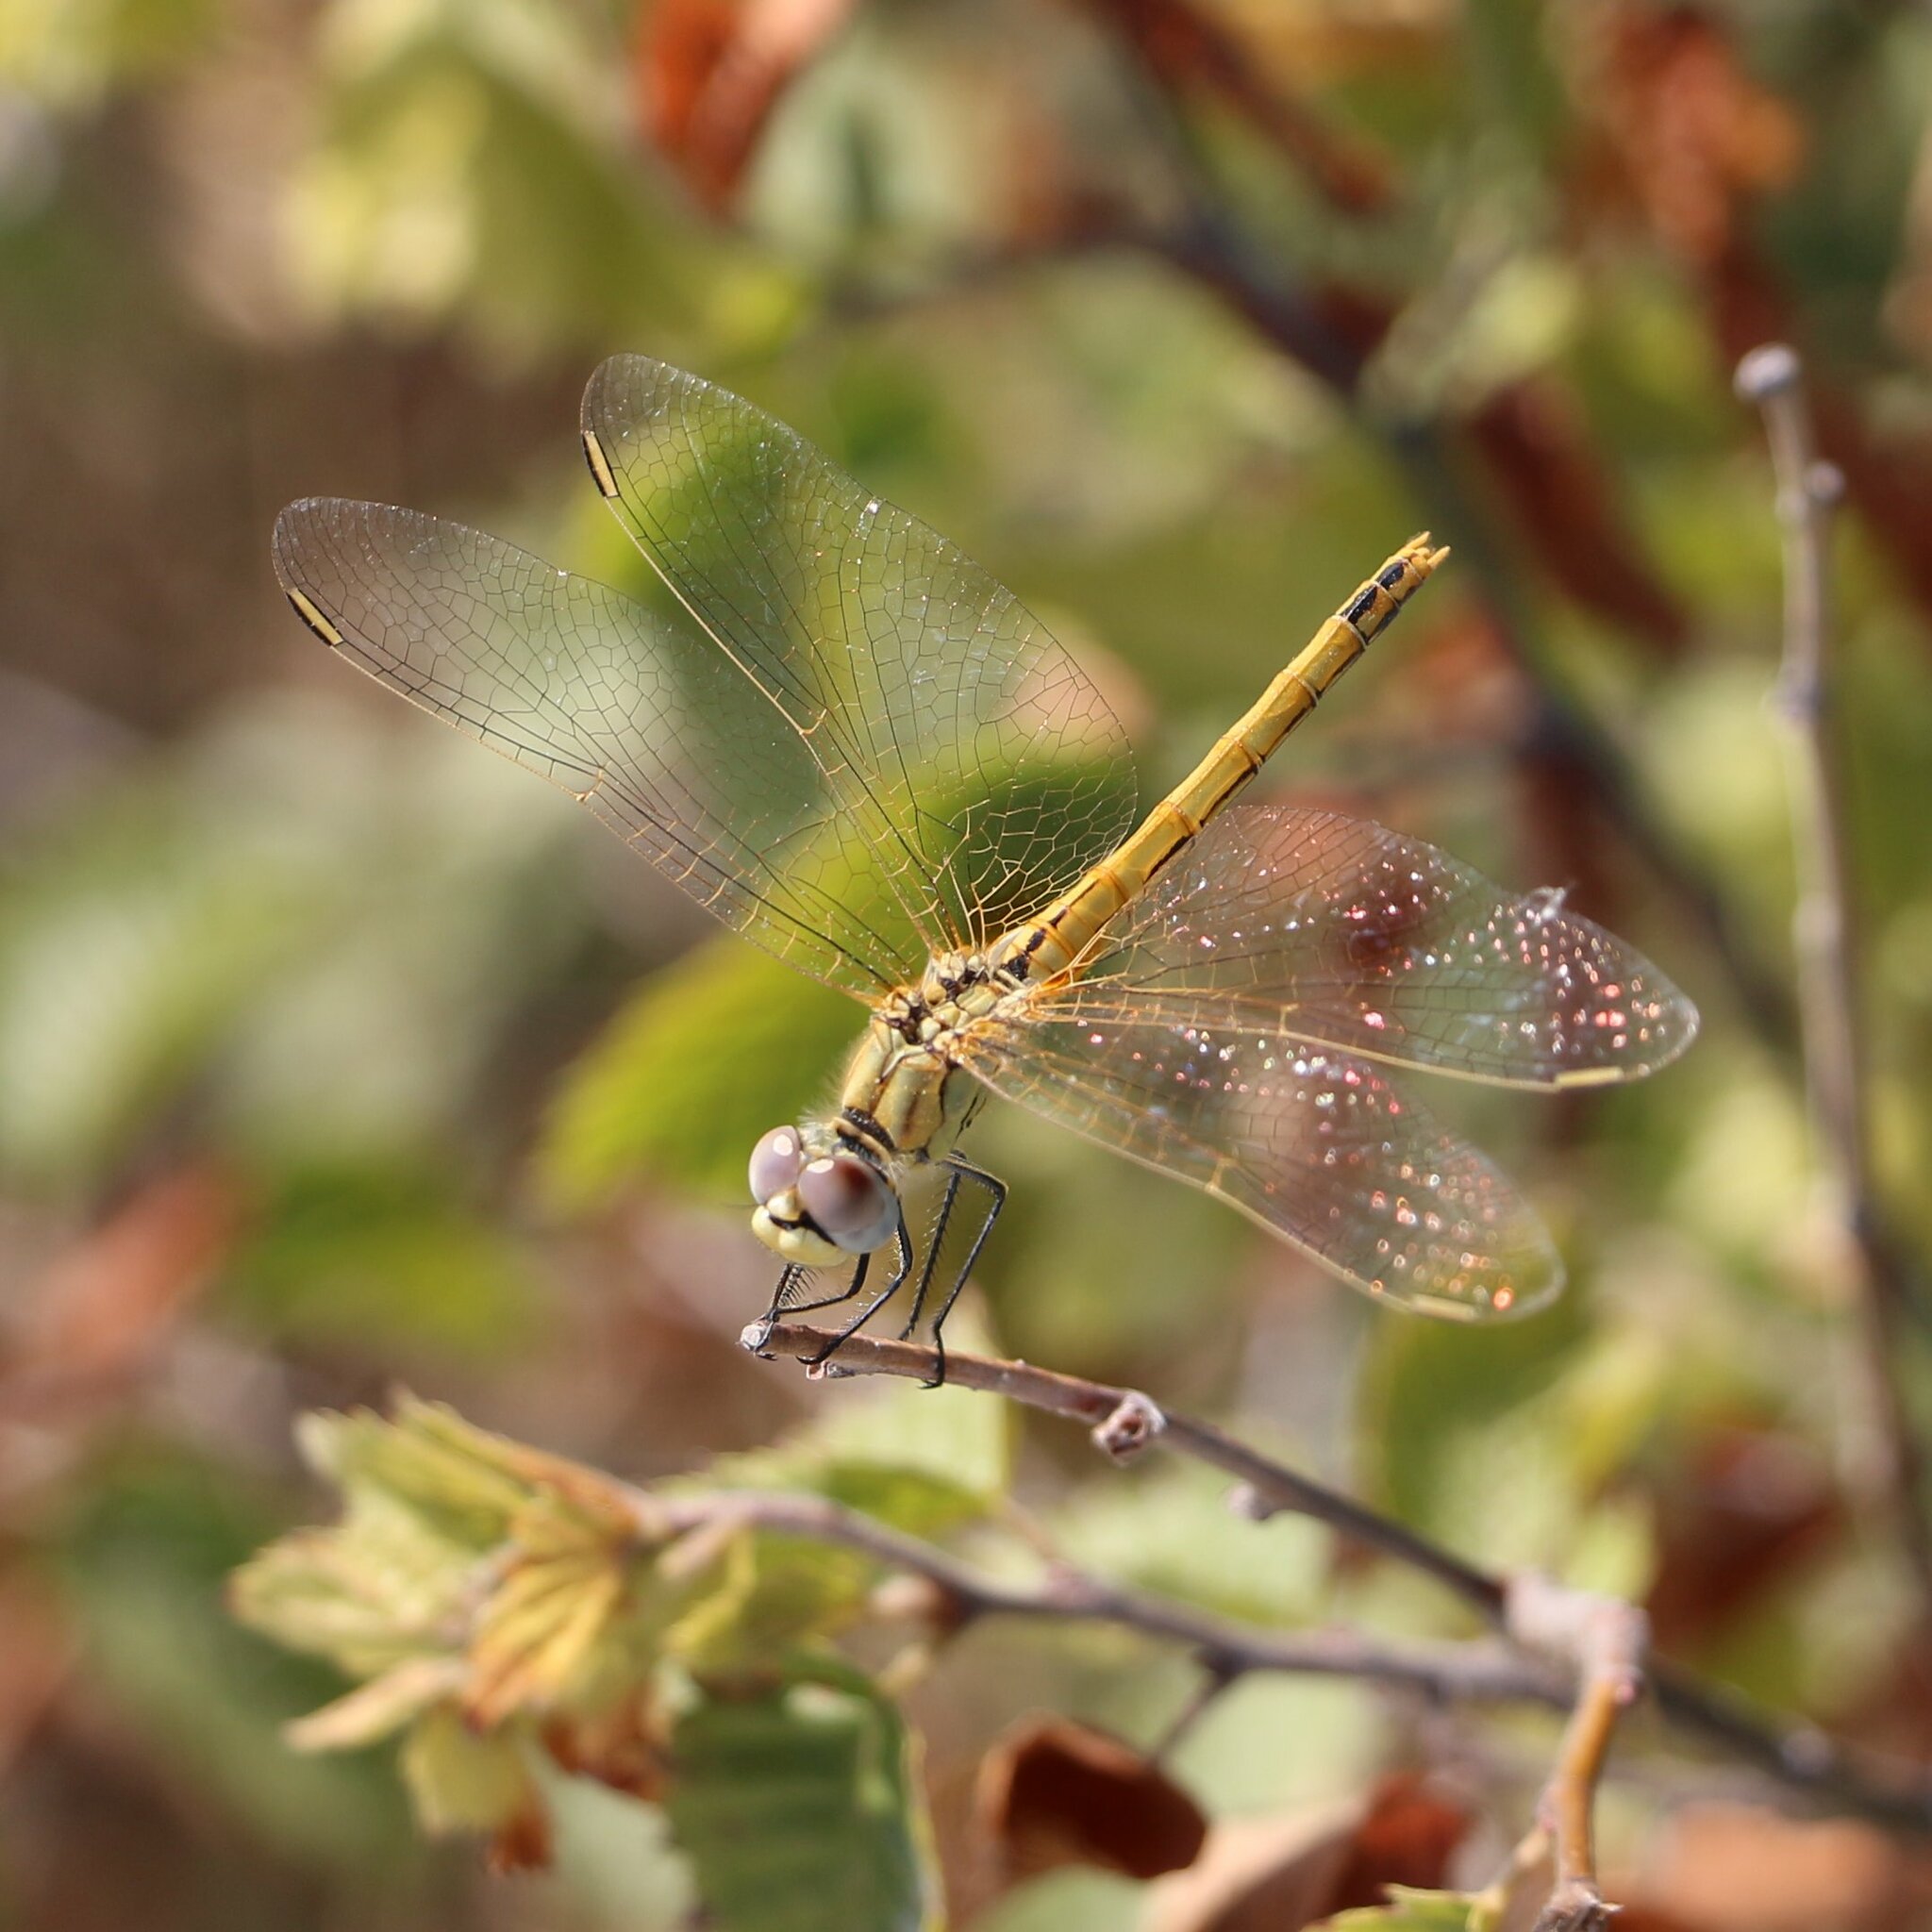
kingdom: Animalia
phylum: Arthropoda
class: Insecta
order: Odonata
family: Libellulidae
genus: Sympetrum
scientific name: Sympetrum fonscolombii
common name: Red-veined darter
